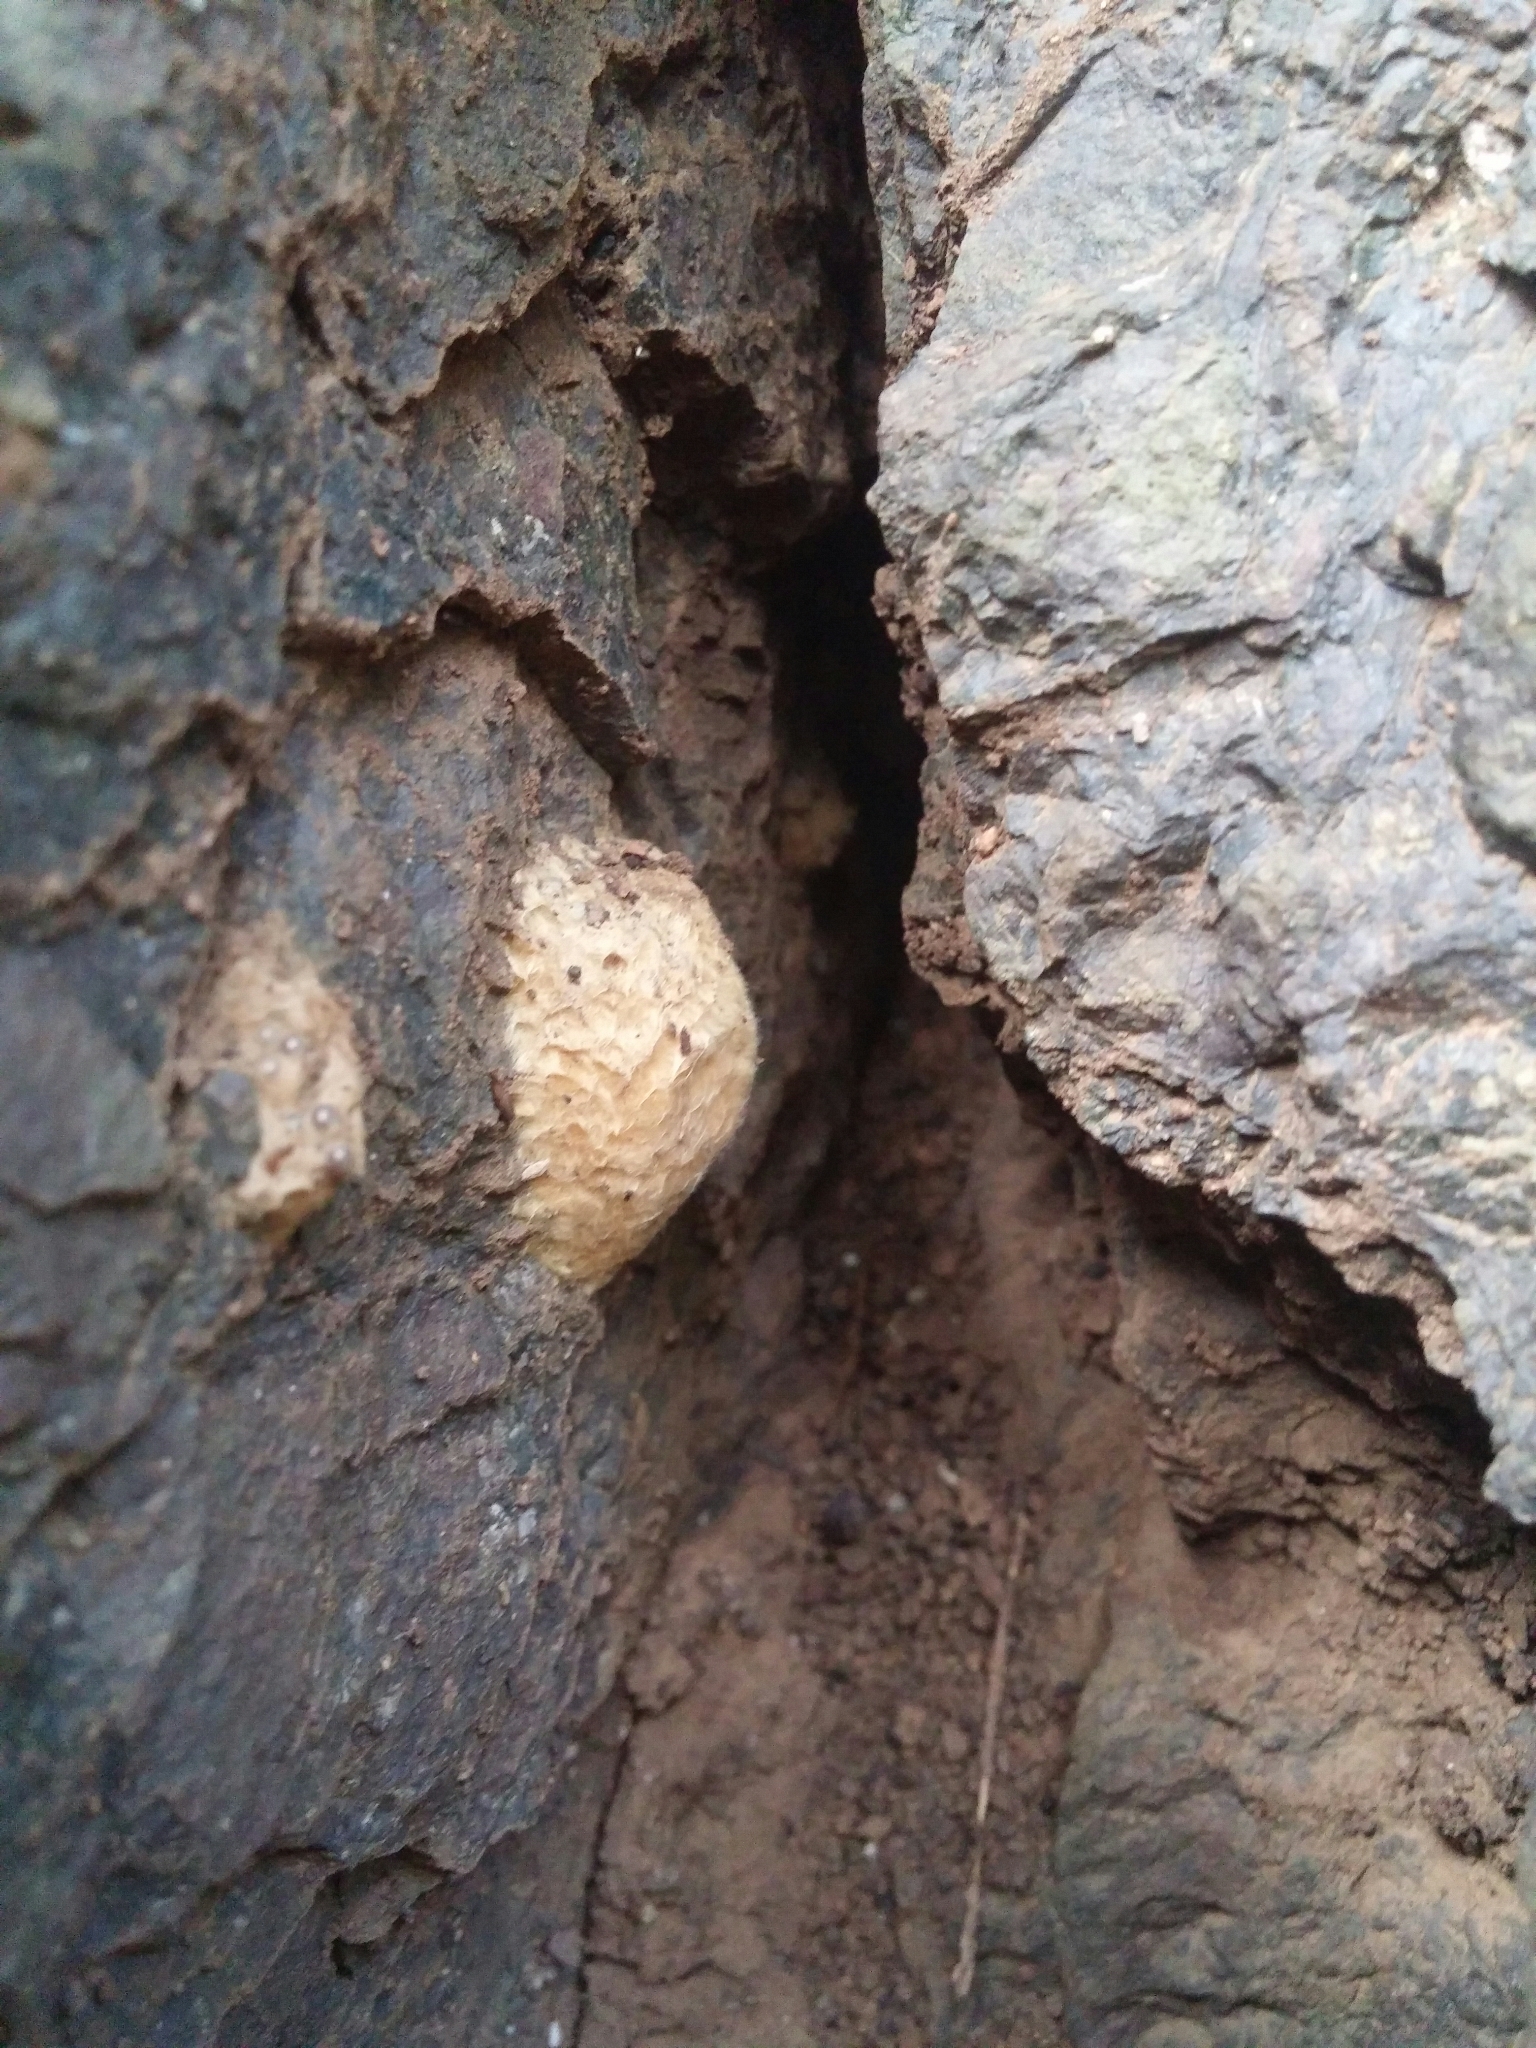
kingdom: Animalia
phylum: Arthropoda
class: Insecta
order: Lepidoptera
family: Erebidae
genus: Lymantria
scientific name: Lymantria dispar
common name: Gypsy moth
